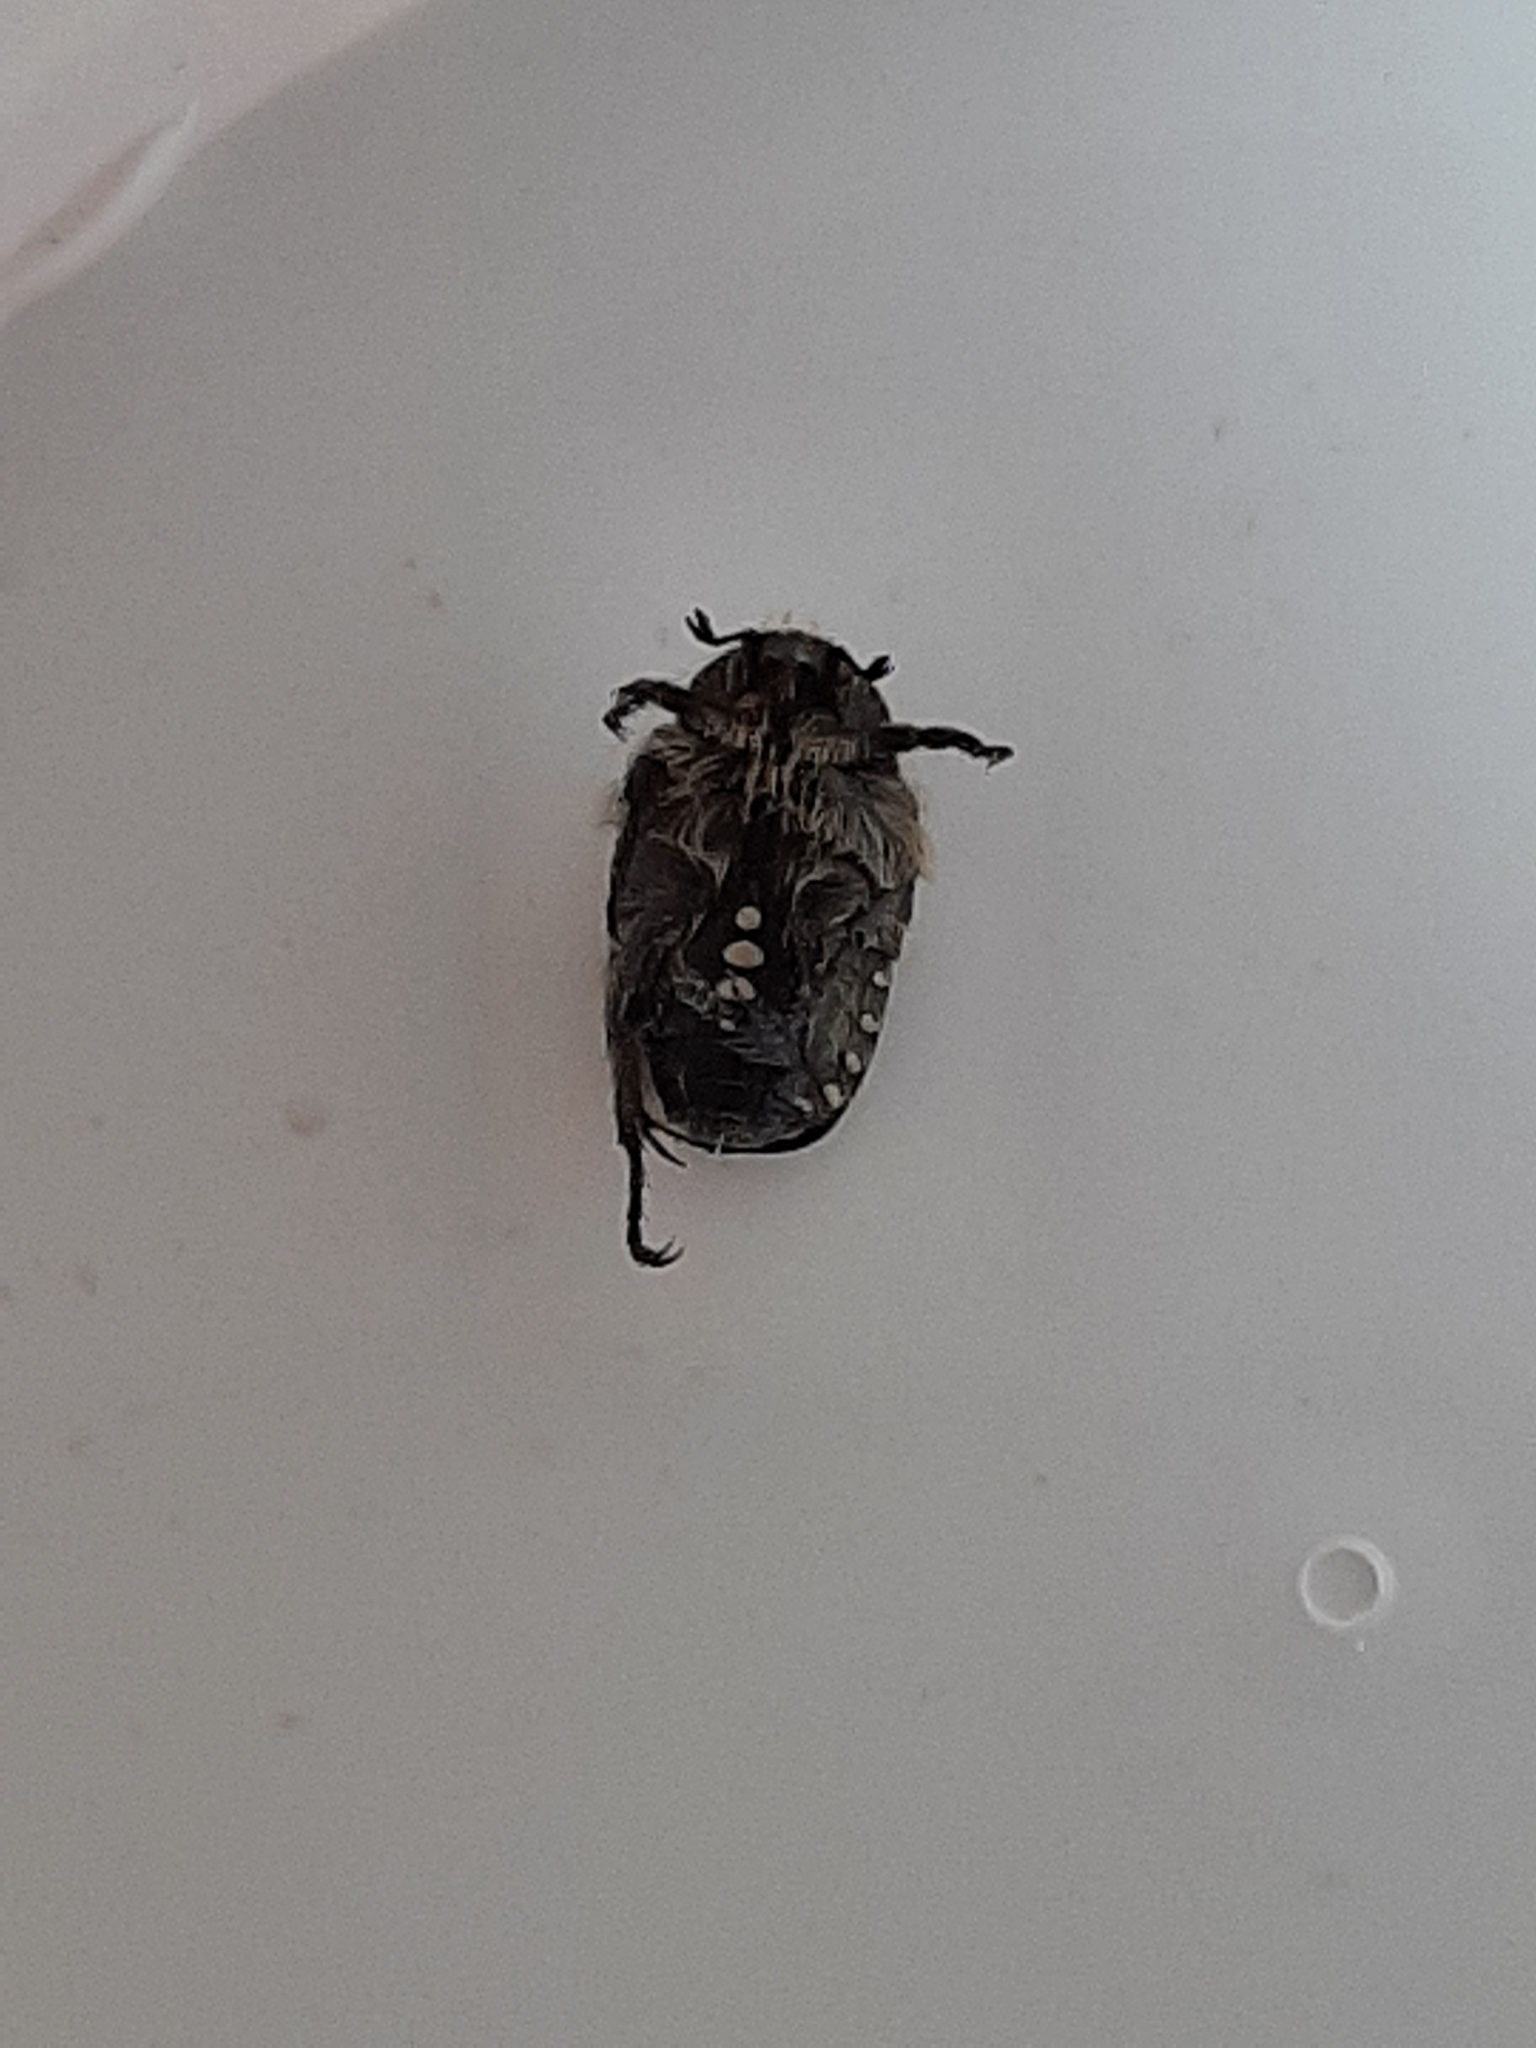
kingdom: Animalia
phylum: Arthropoda
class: Insecta
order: Coleoptera
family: Scarabaeidae
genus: Oxythyrea
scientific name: Oxythyrea funesta
